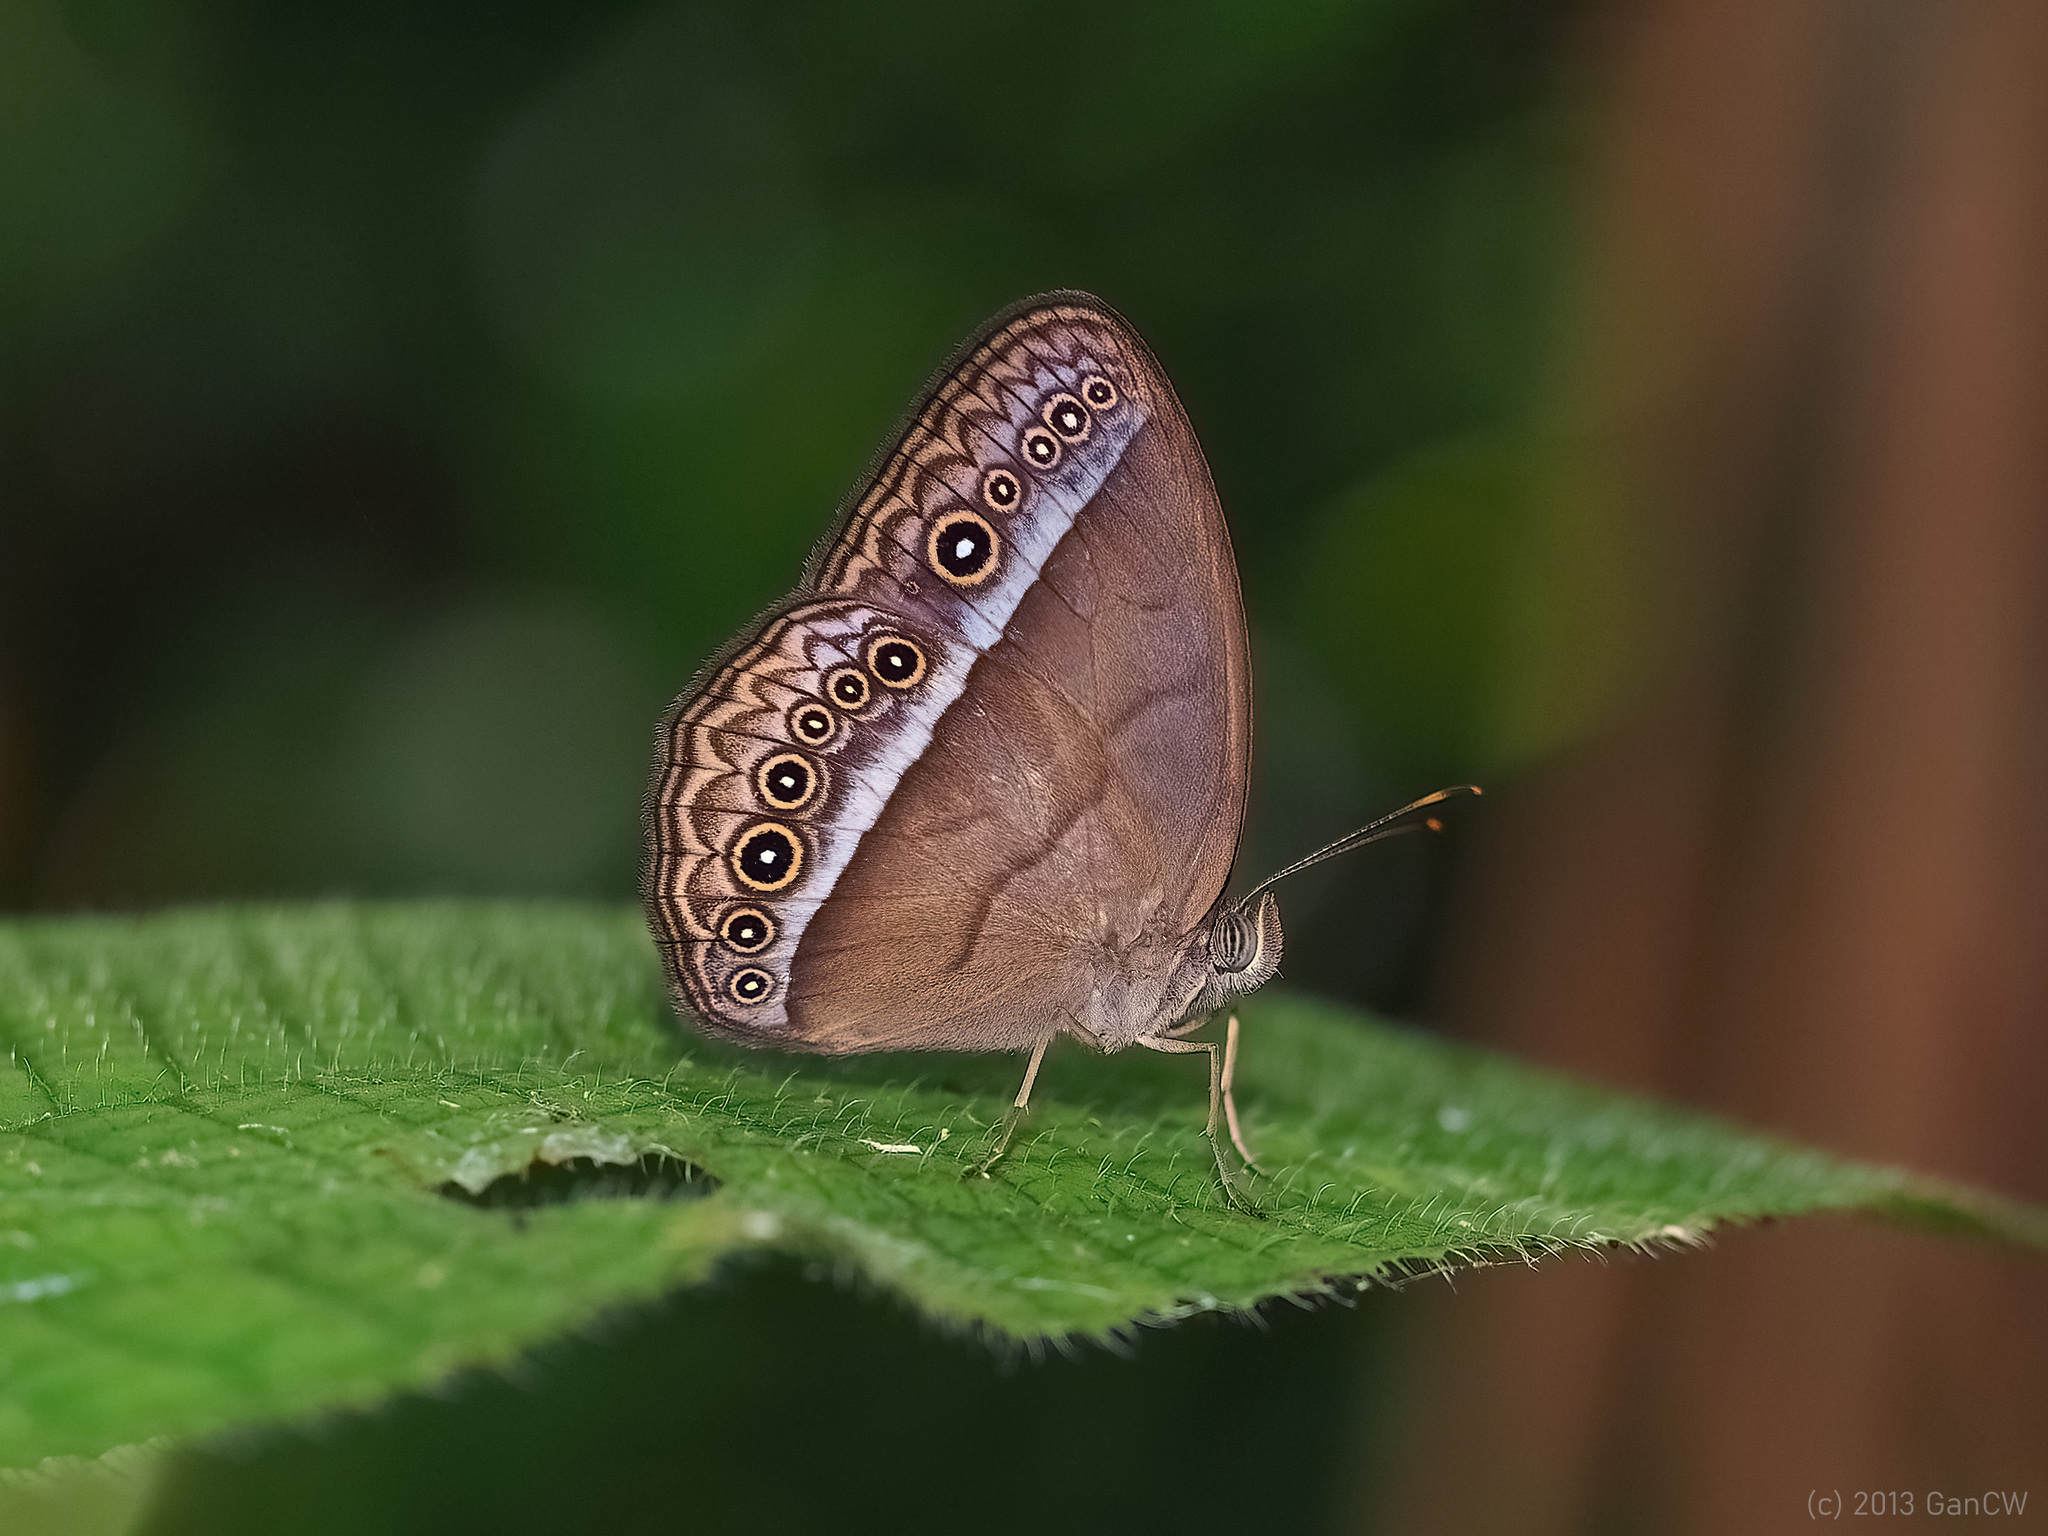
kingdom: Animalia
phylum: Arthropoda
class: Insecta
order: Lepidoptera
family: Nymphalidae
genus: Mycalesis
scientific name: Mycalesis orseis
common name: Purple bushbrown
